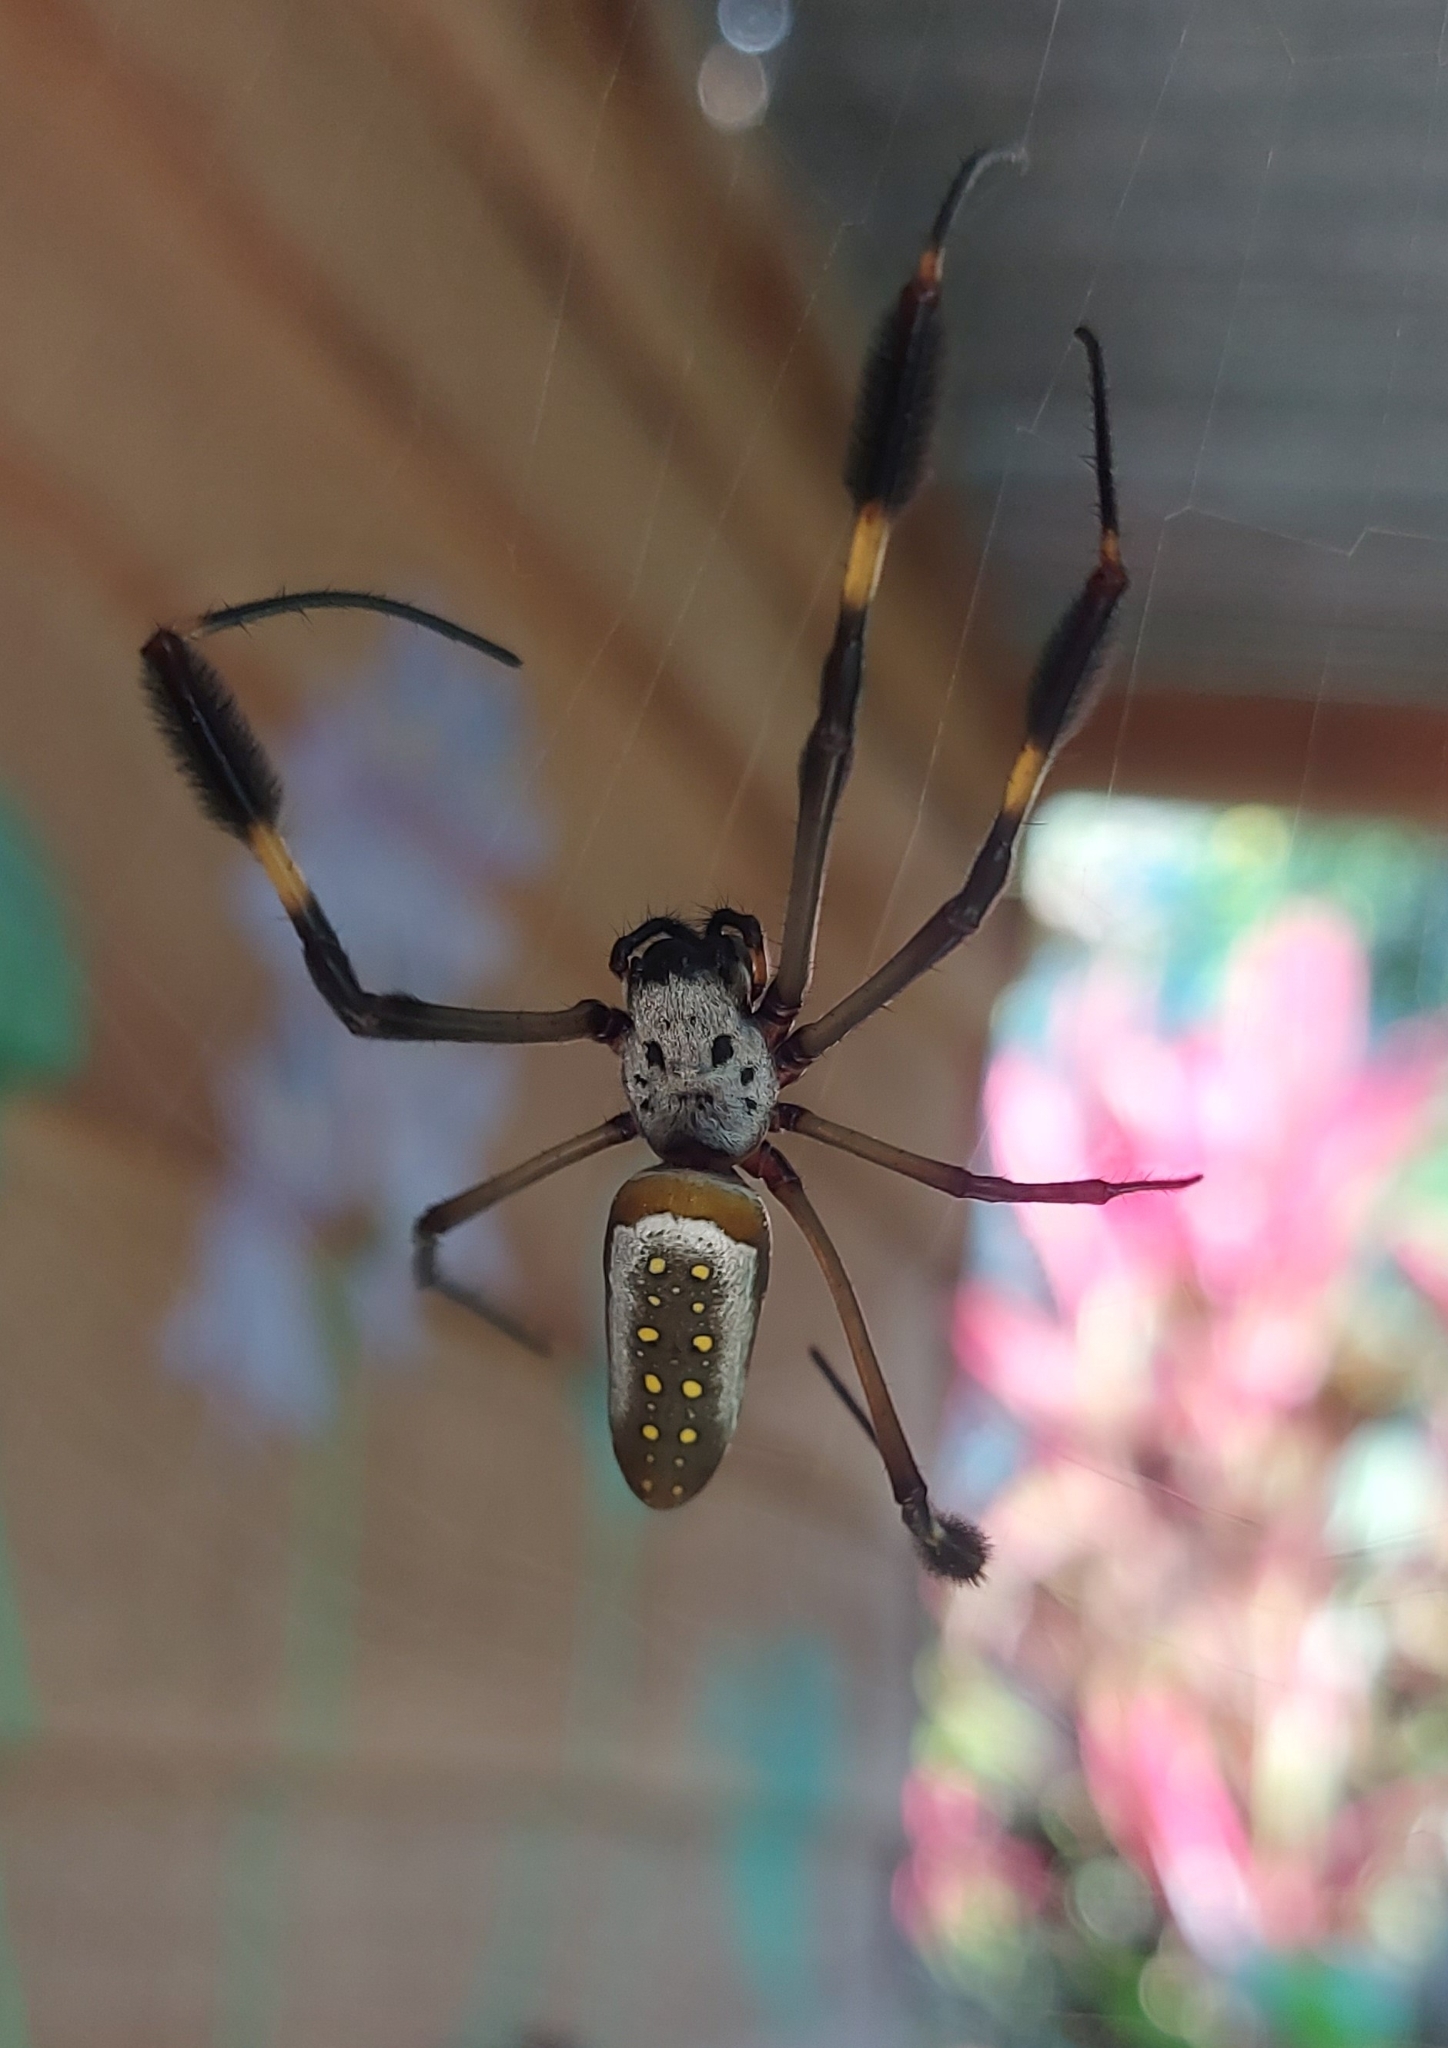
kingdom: Animalia
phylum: Arthropoda
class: Arachnida
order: Araneae
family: Araneidae
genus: Trichonephila
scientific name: Trichonephila clavipes
